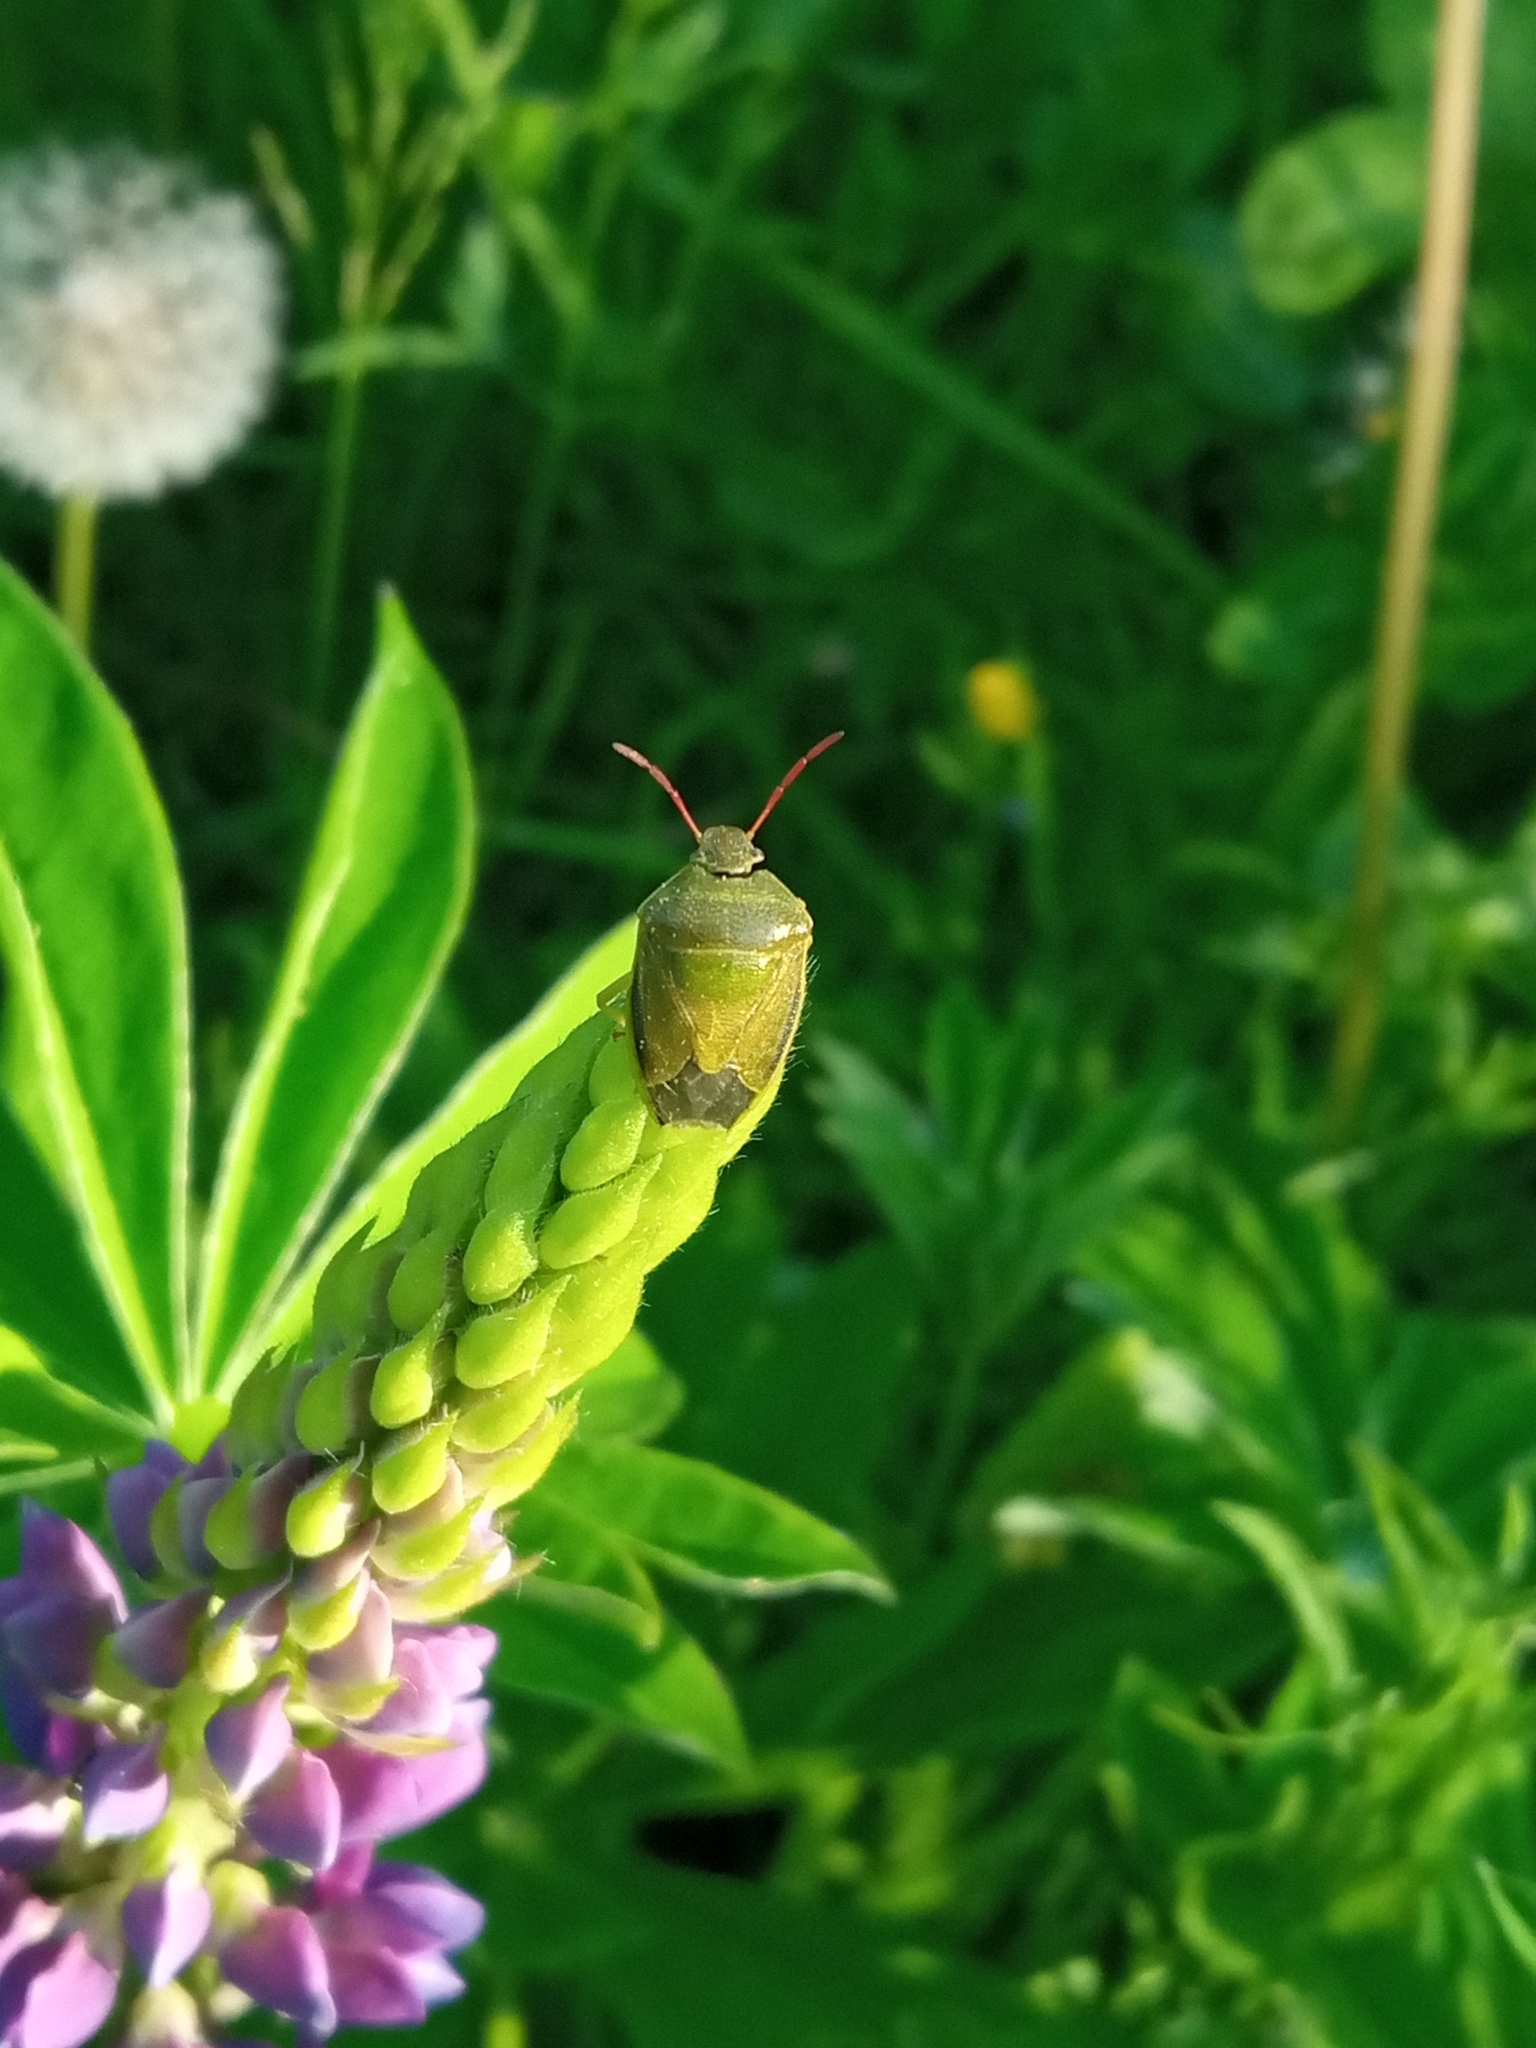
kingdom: Animalia
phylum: Arthropoda
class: Insecta
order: Hemiptera
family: Pentatomidae
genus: Piezodorus
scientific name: Piezodorus lituratus
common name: Stink bug
